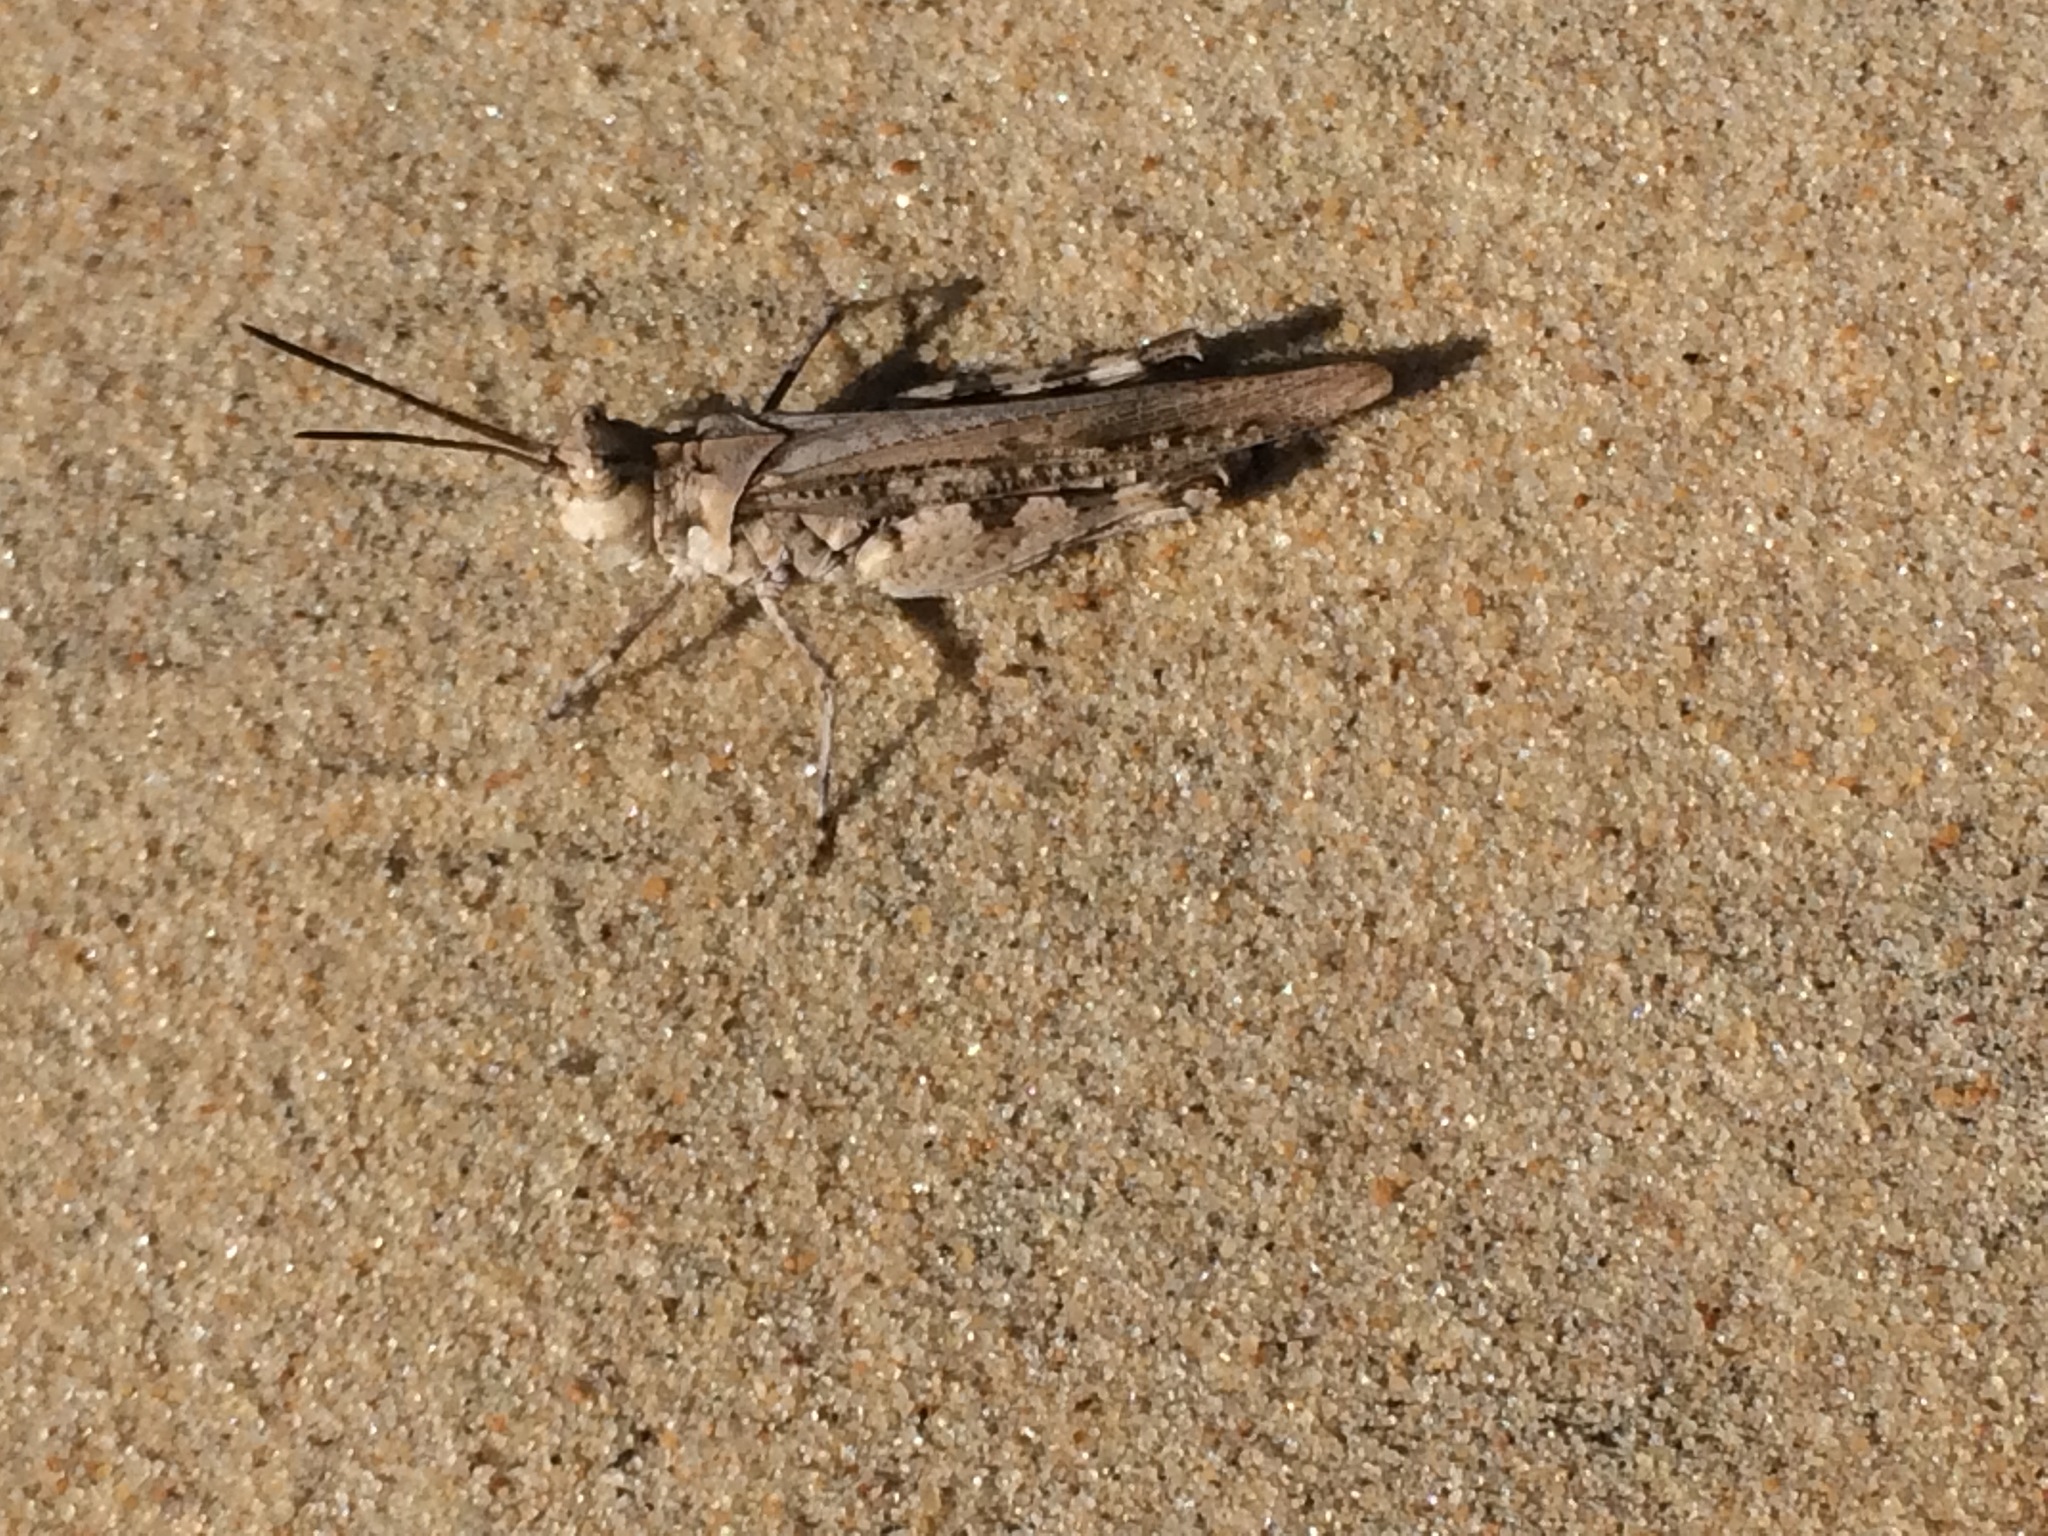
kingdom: Animalia
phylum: Arthropoda
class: Insecta
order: Orthoptera
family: Acrididae
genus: Psinidia
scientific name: Psinidia fenestralis
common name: Long-horned locust
